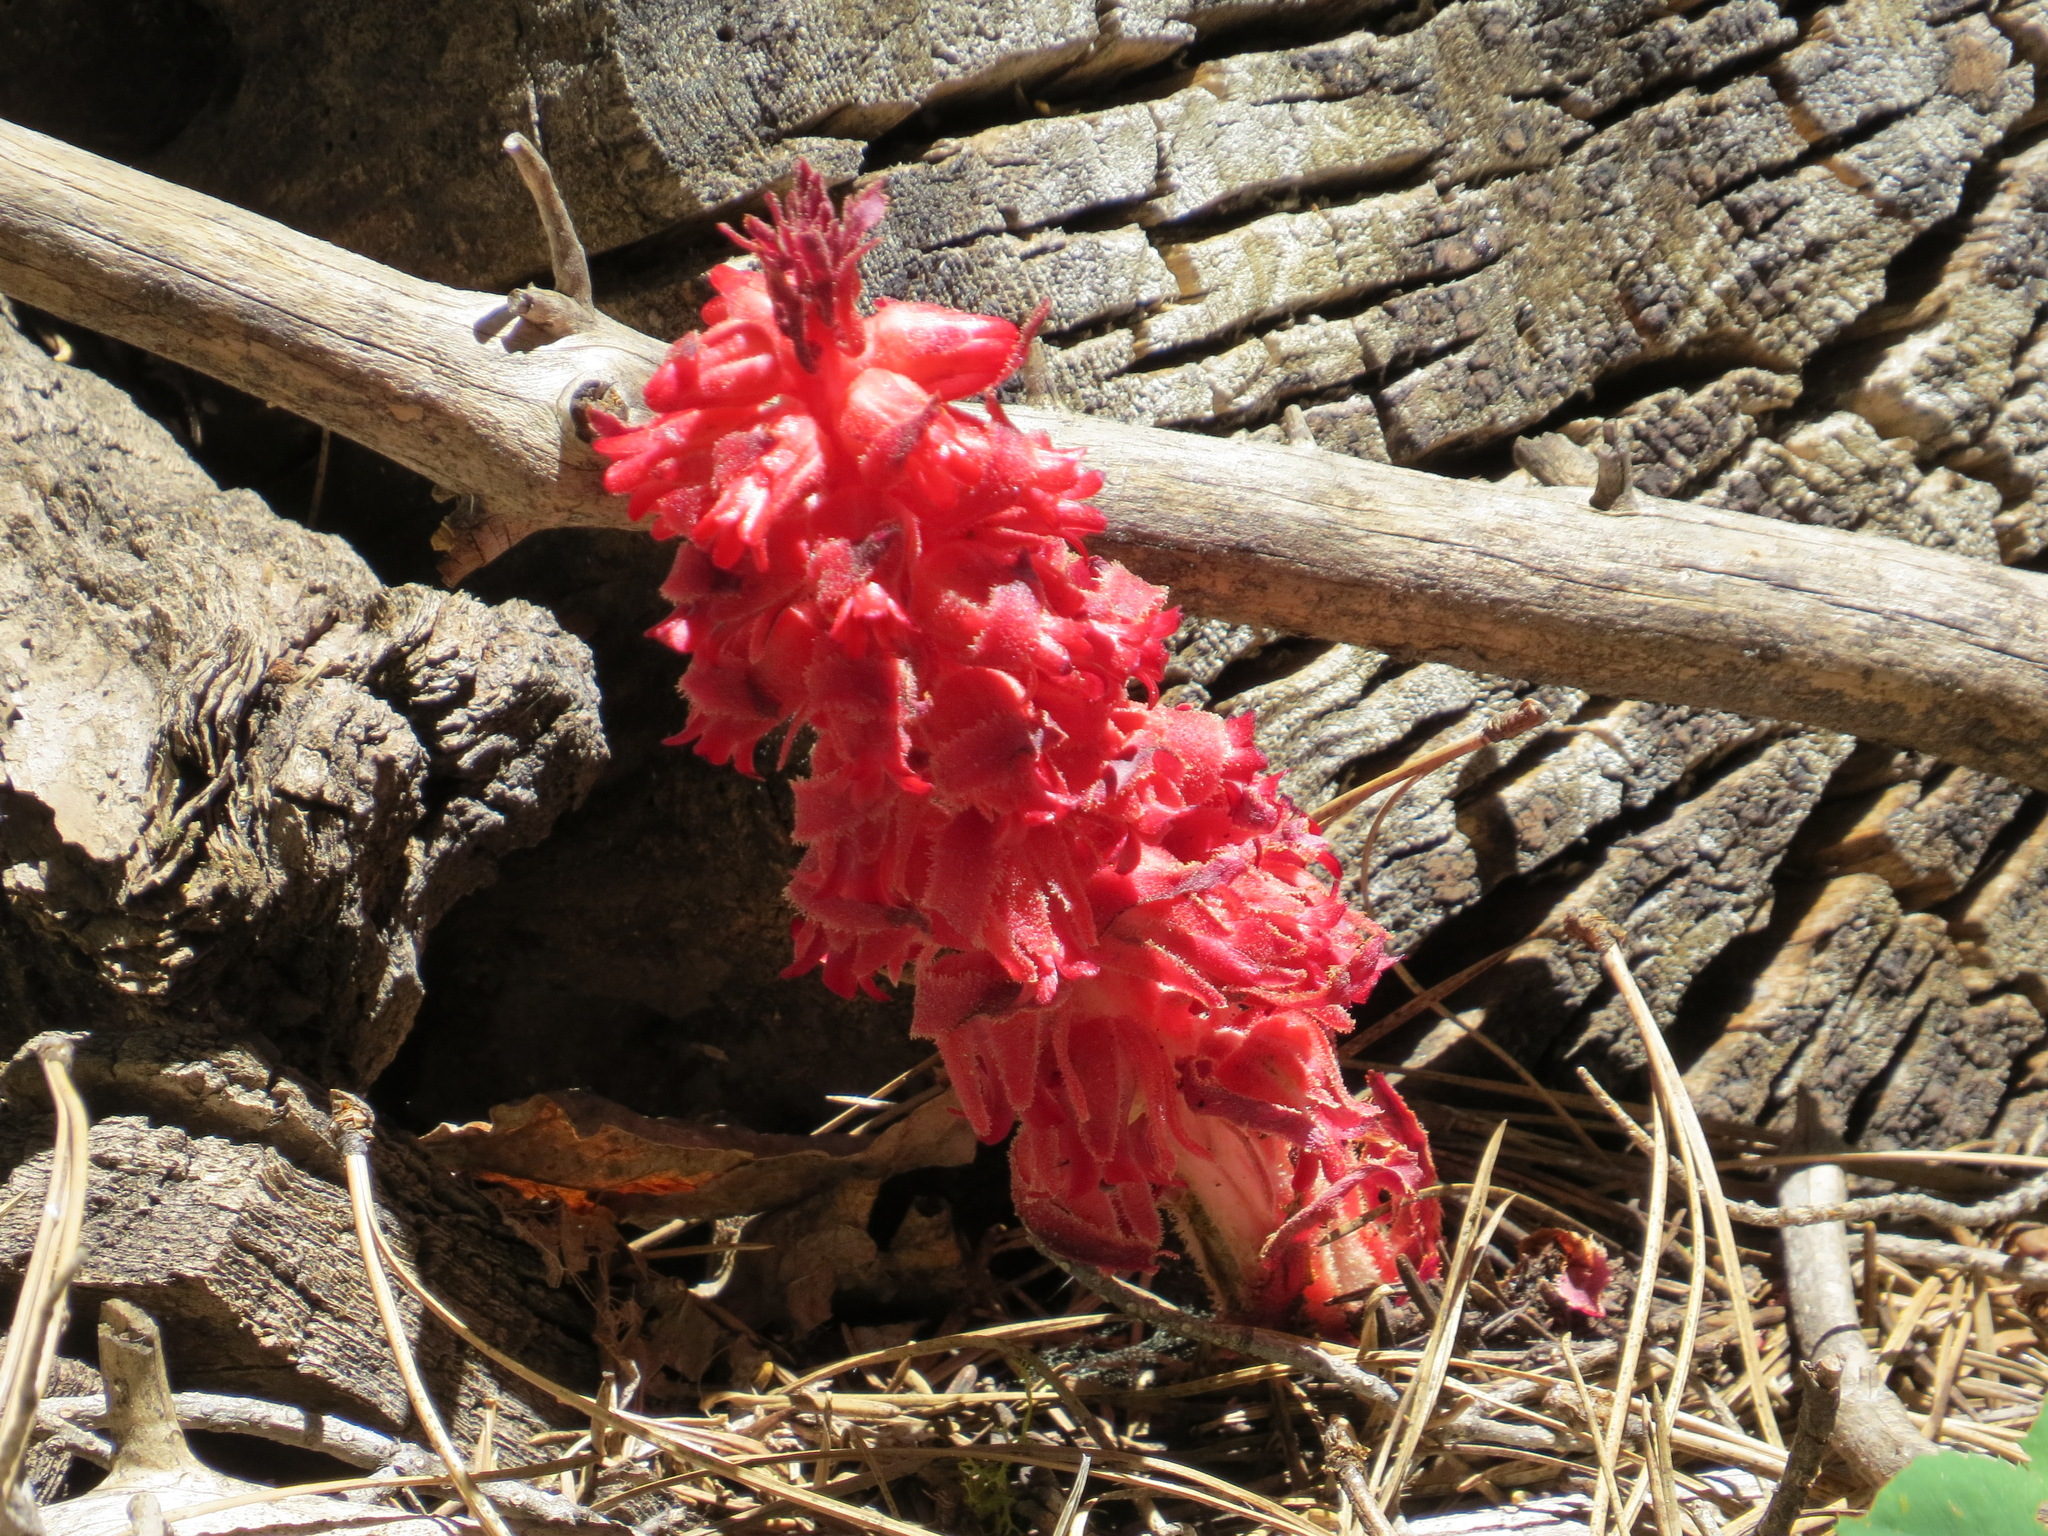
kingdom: Plantae
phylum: Tracheophyta
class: Magnoliopsida
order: Ericales
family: Ericaceae
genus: Sarcodes
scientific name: Sarcodes sanguinea
